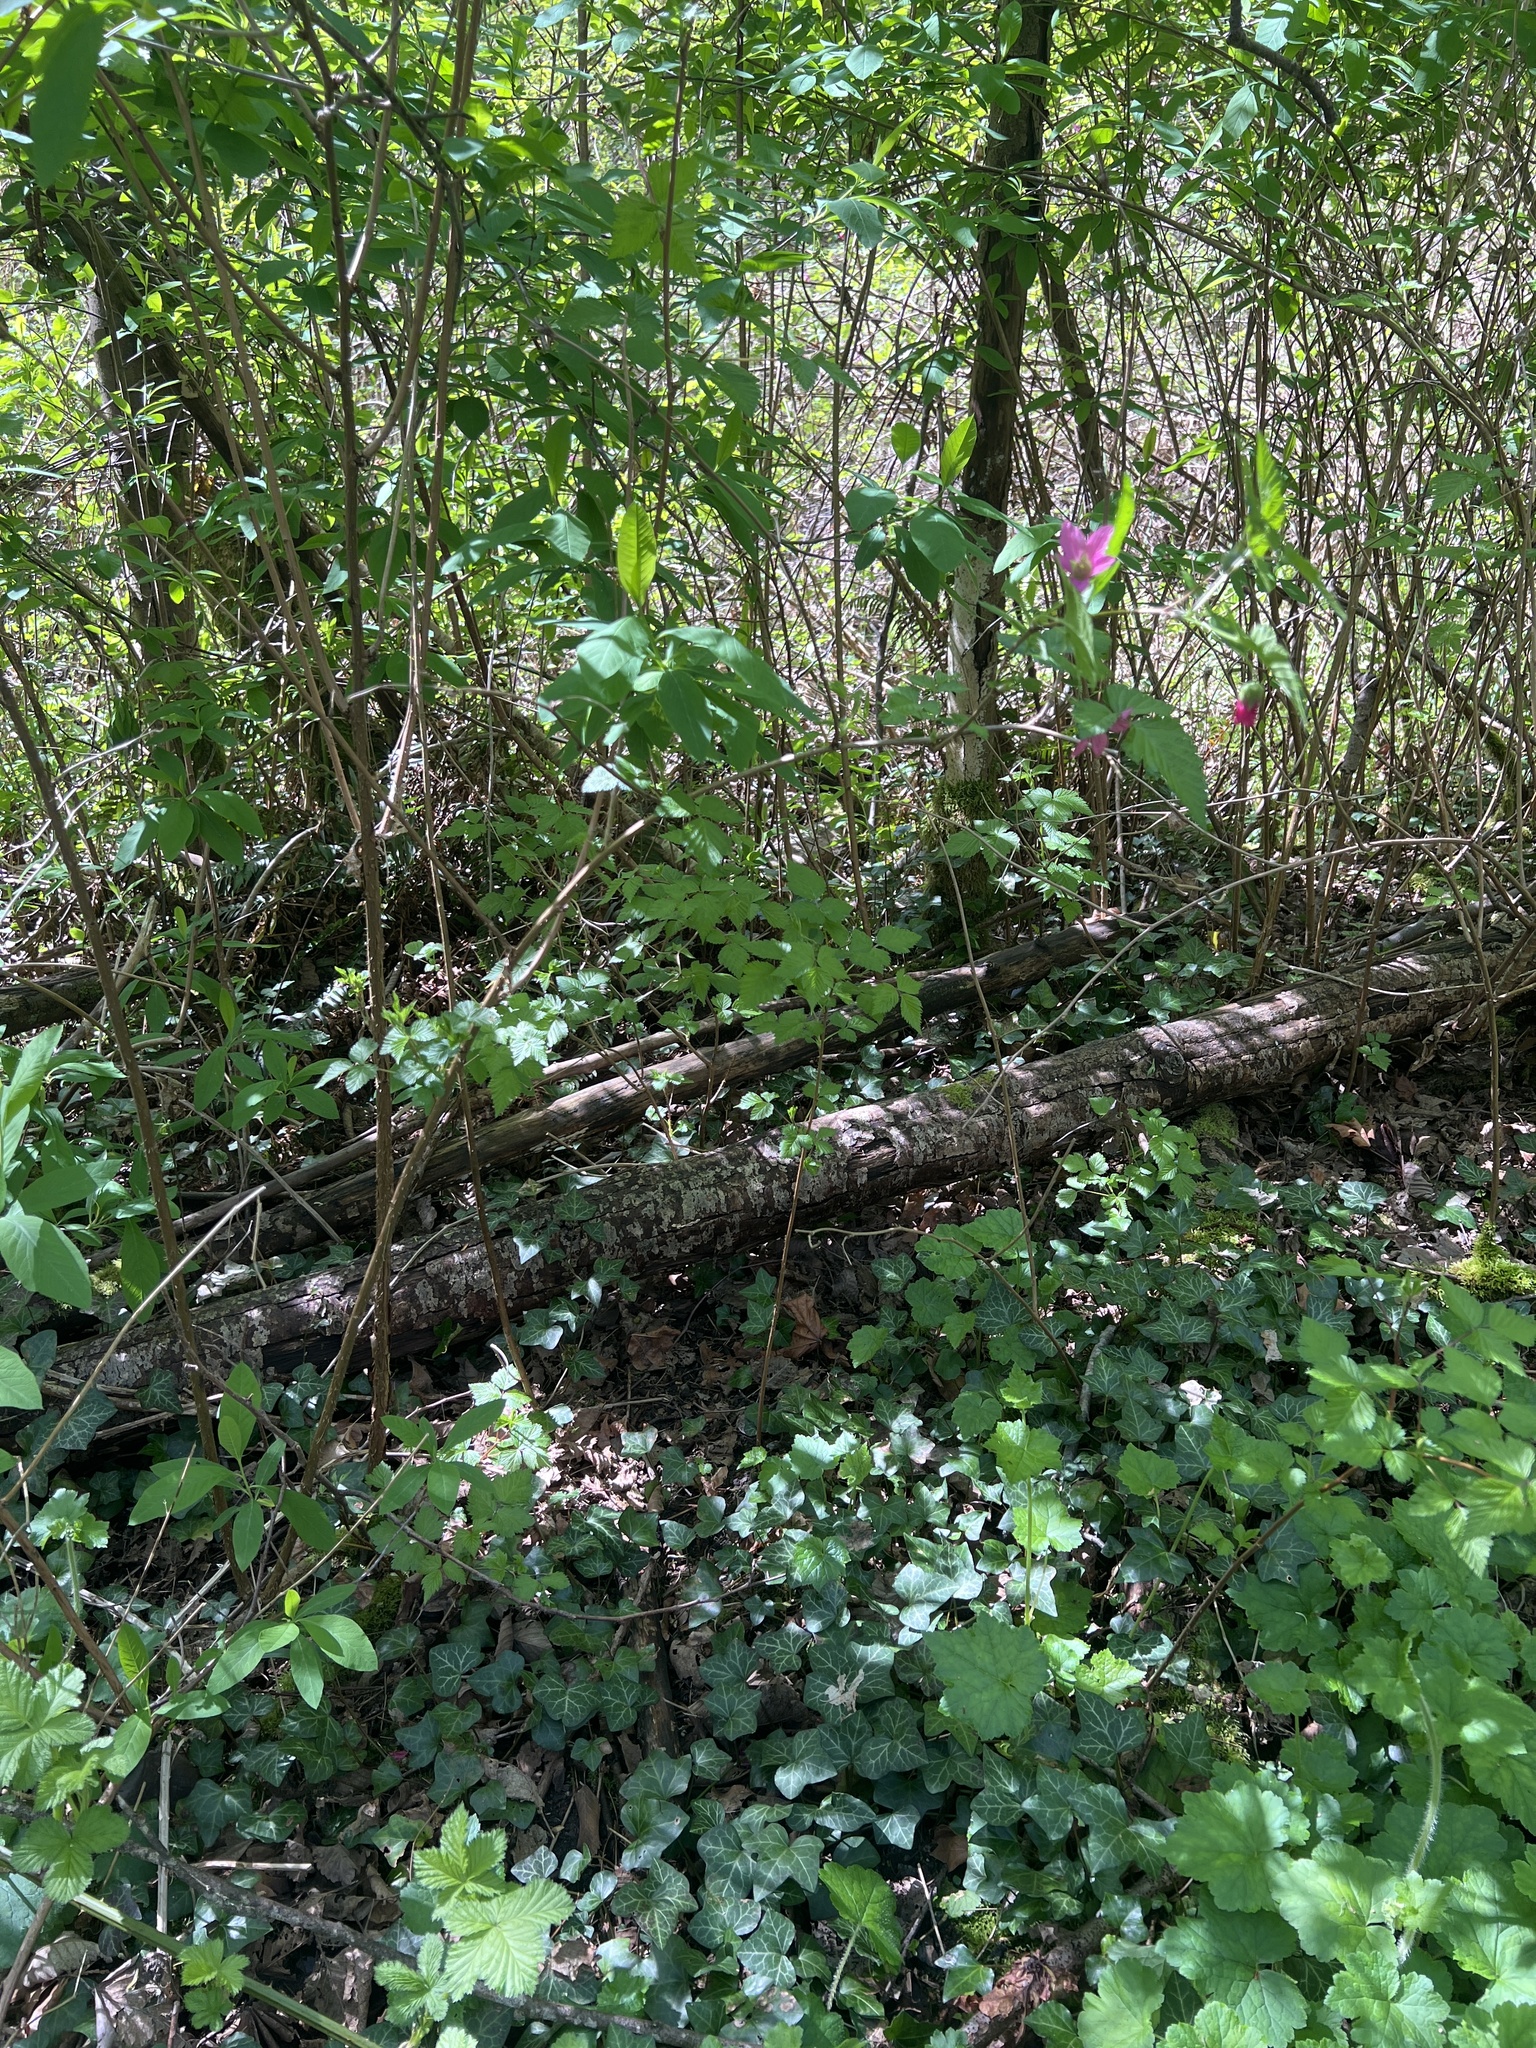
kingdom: Plantae
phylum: Tracheophyta
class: Magnoliopsida
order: Rosales
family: Rosaceae
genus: Rubus
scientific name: Rubus spectabilis
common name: Salmonberry
